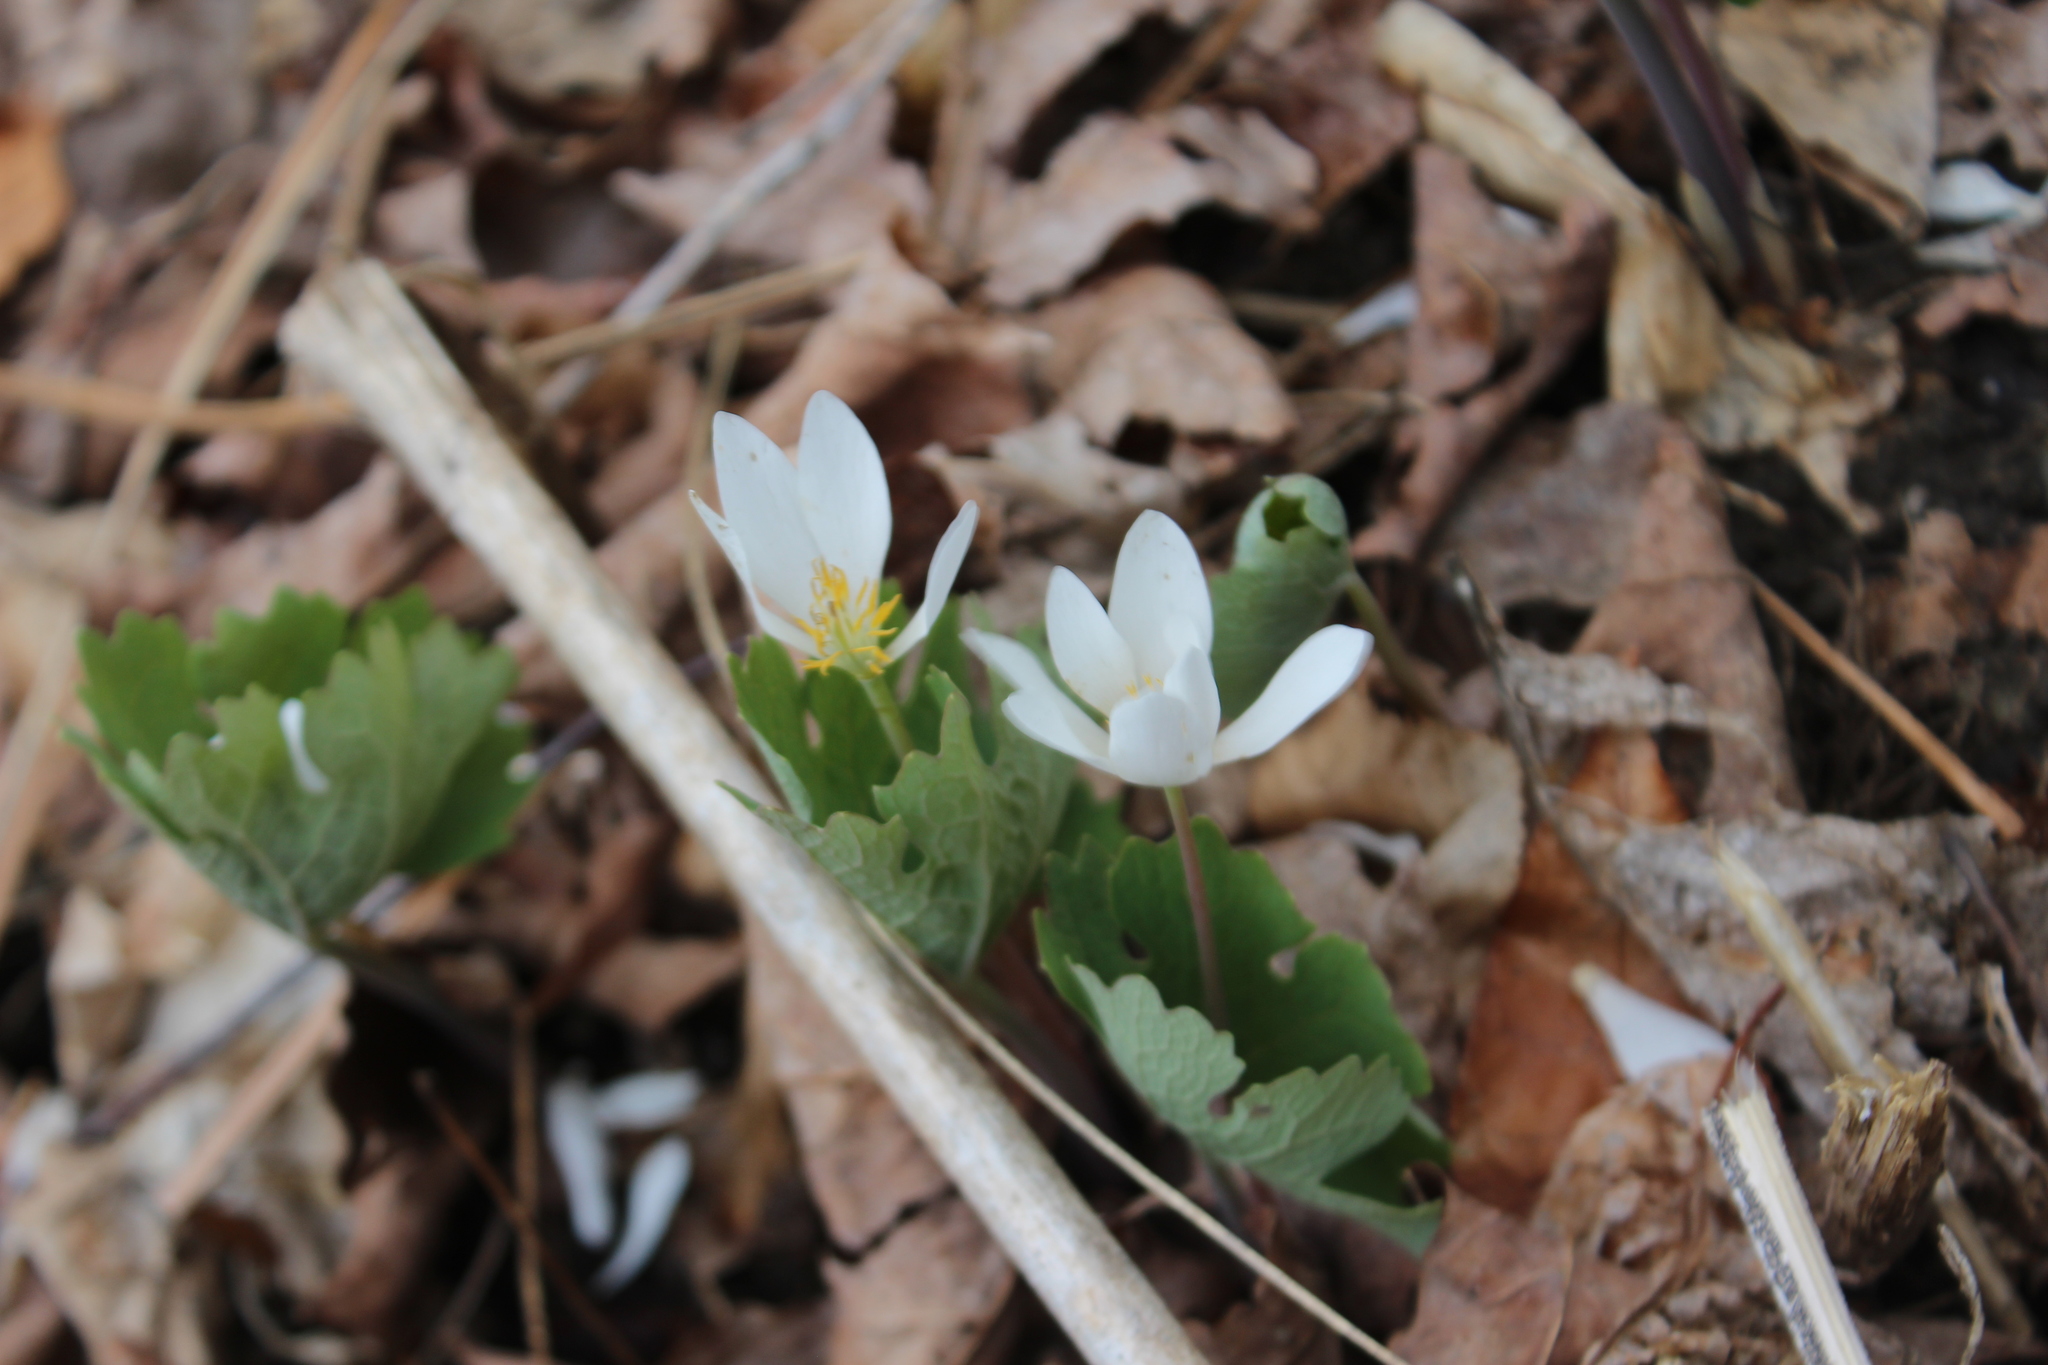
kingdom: Plantae
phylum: Tracheophyta
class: Magnoliopsida
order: Ranunculales
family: Papaveraceae
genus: Sanguinaria
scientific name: Sanguinaria canadensis
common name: Bloodroot
